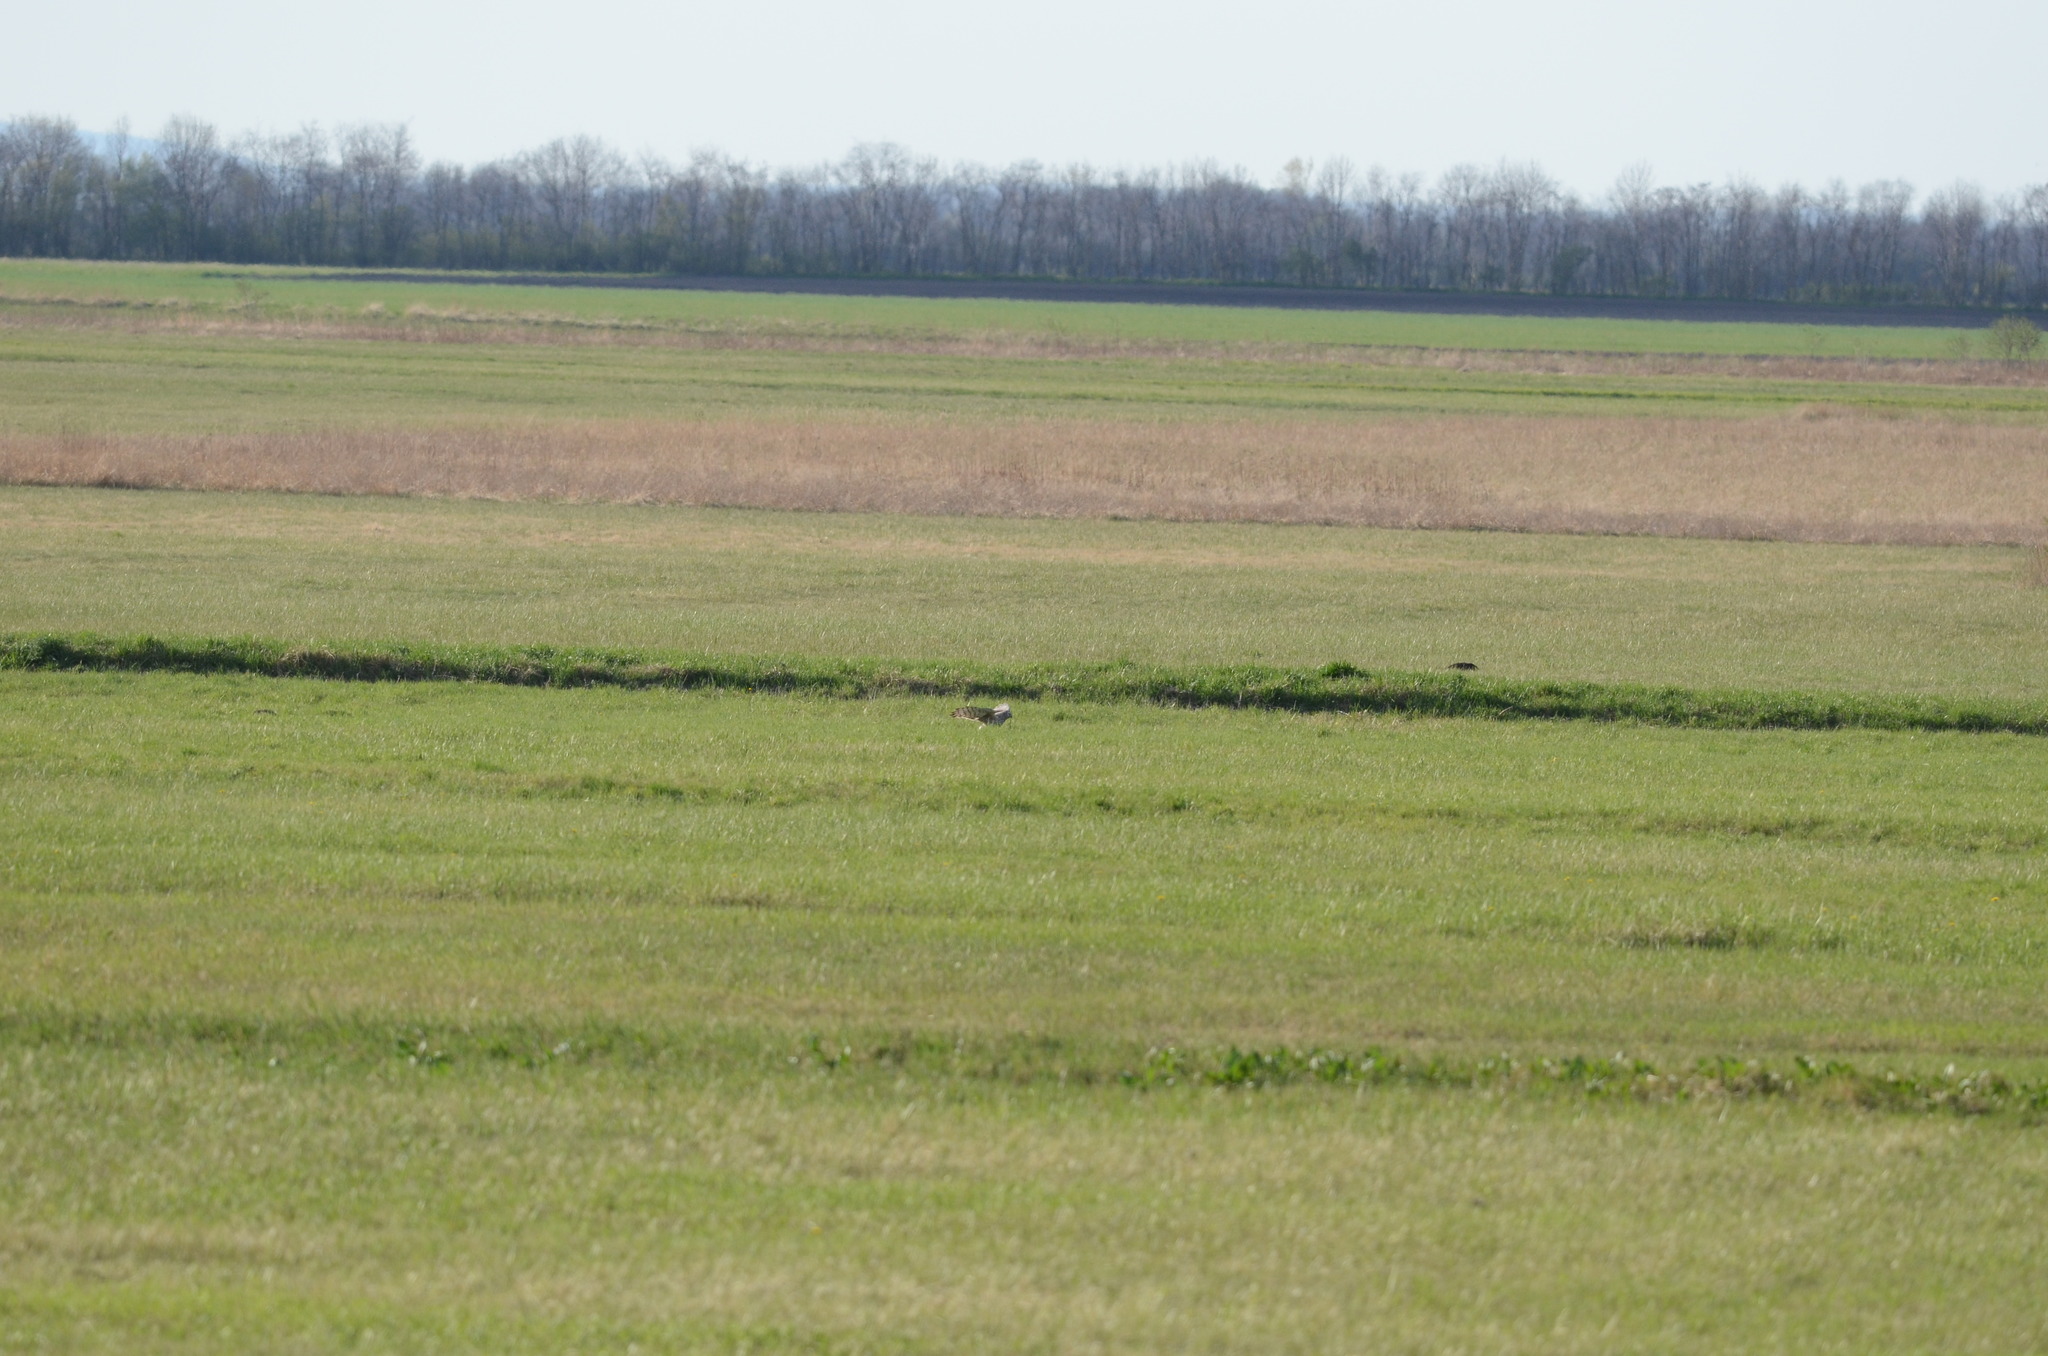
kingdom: Animalia
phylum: Chordata
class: Aves
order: Accipitriformes
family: Accipitridae
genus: Circus
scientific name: Circus cyaneus
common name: Hen harrier
